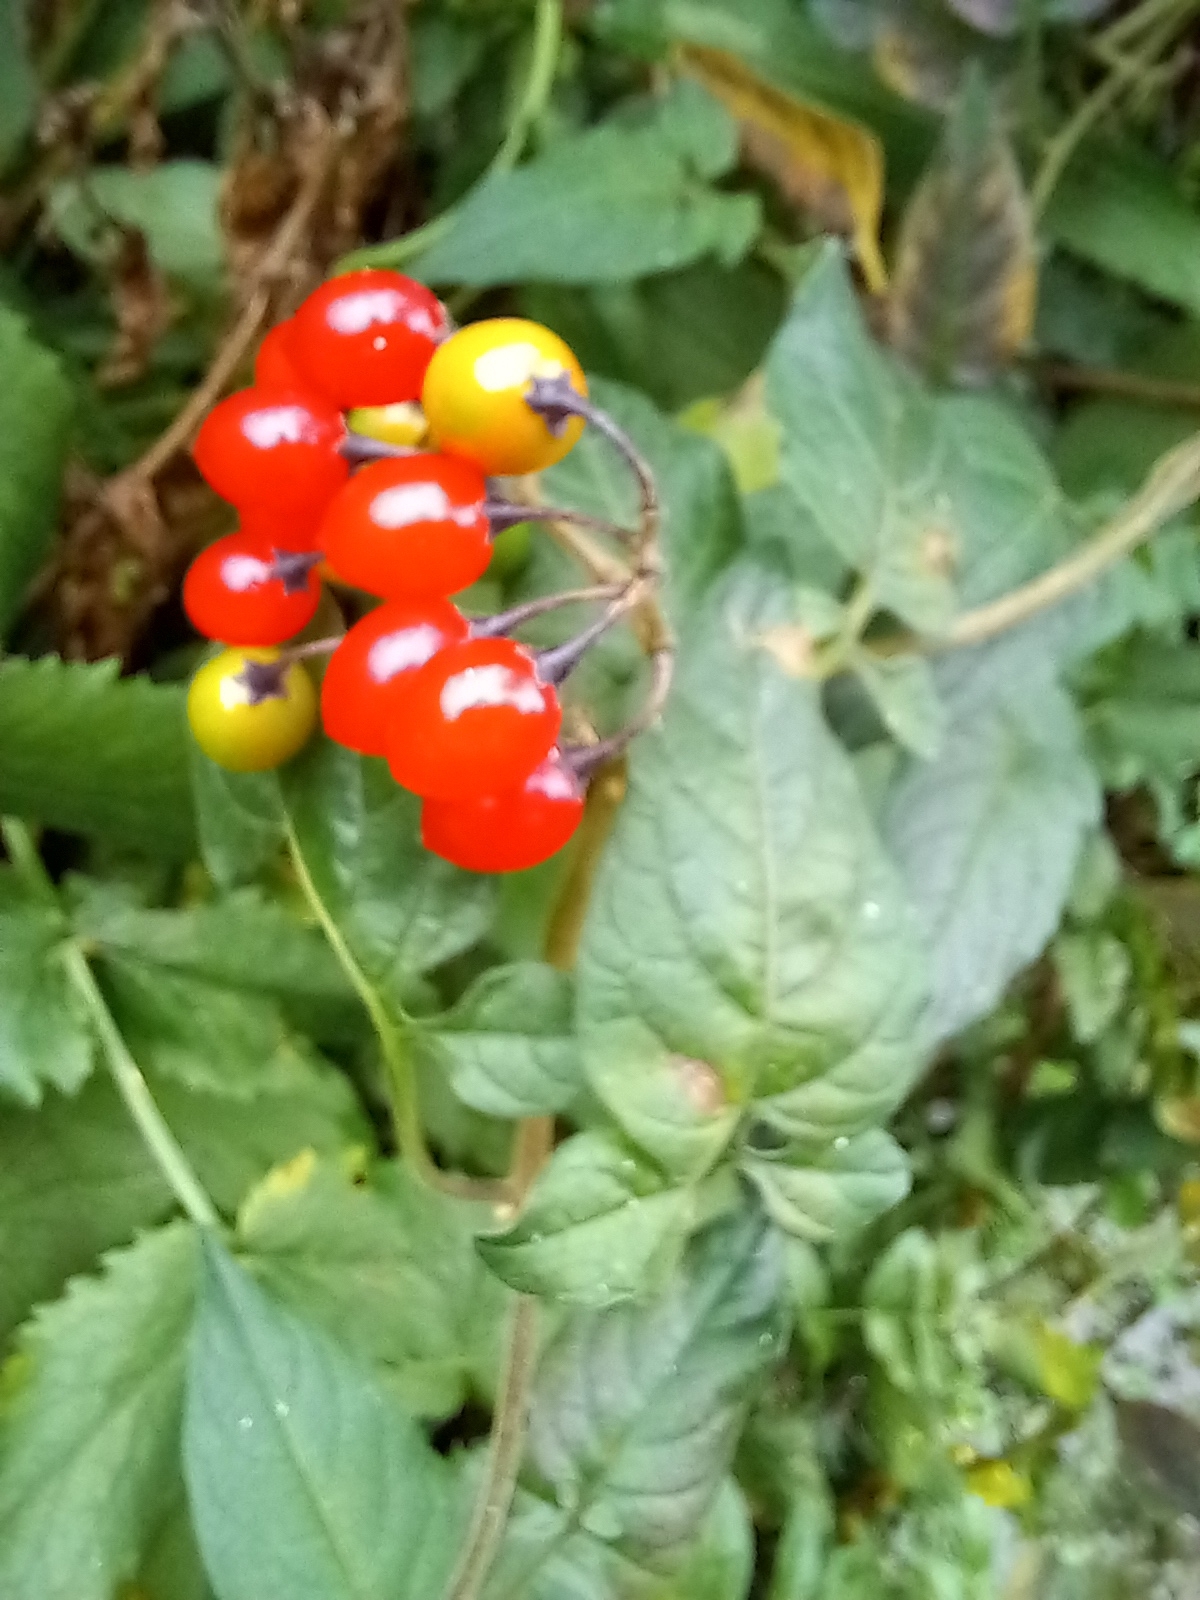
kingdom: Plantae
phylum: Tracheophyta
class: Magnoliopsida
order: Solanales
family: Solanaceae
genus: Solanum
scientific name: Solanum dulcamara
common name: Climbing nightshade
